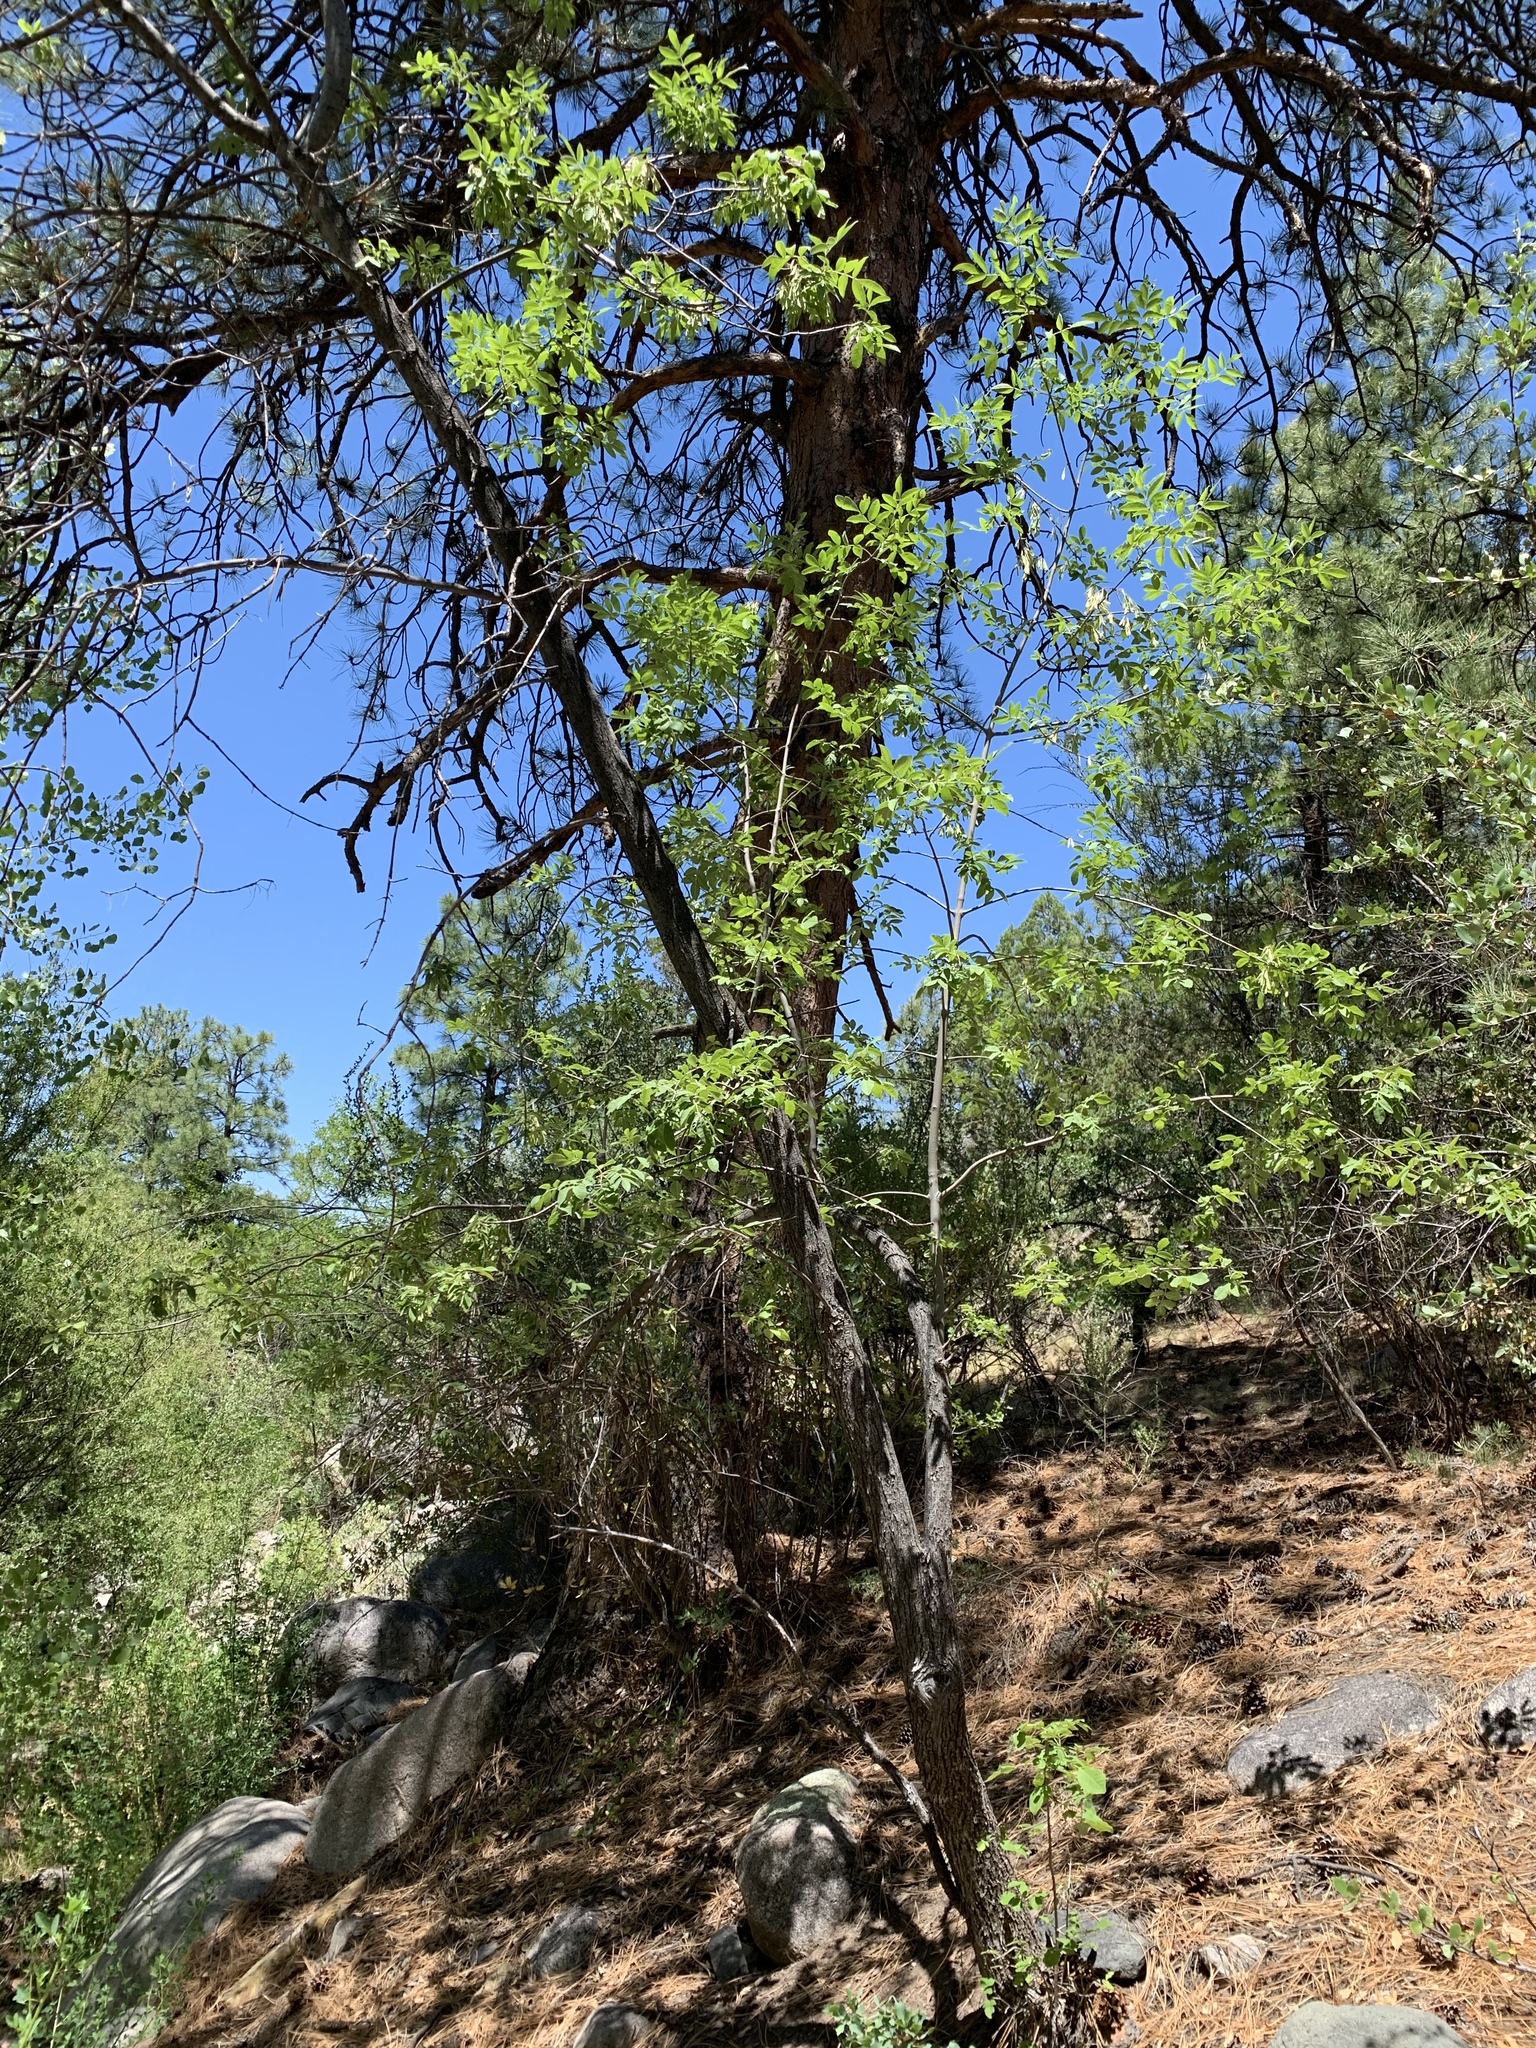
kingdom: Plantae
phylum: Tracheophyta
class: Magnoliopsida
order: Lamiales
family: Oleaceae
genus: Fraxinus
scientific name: Fraxinus velutina
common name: Arizon ash
